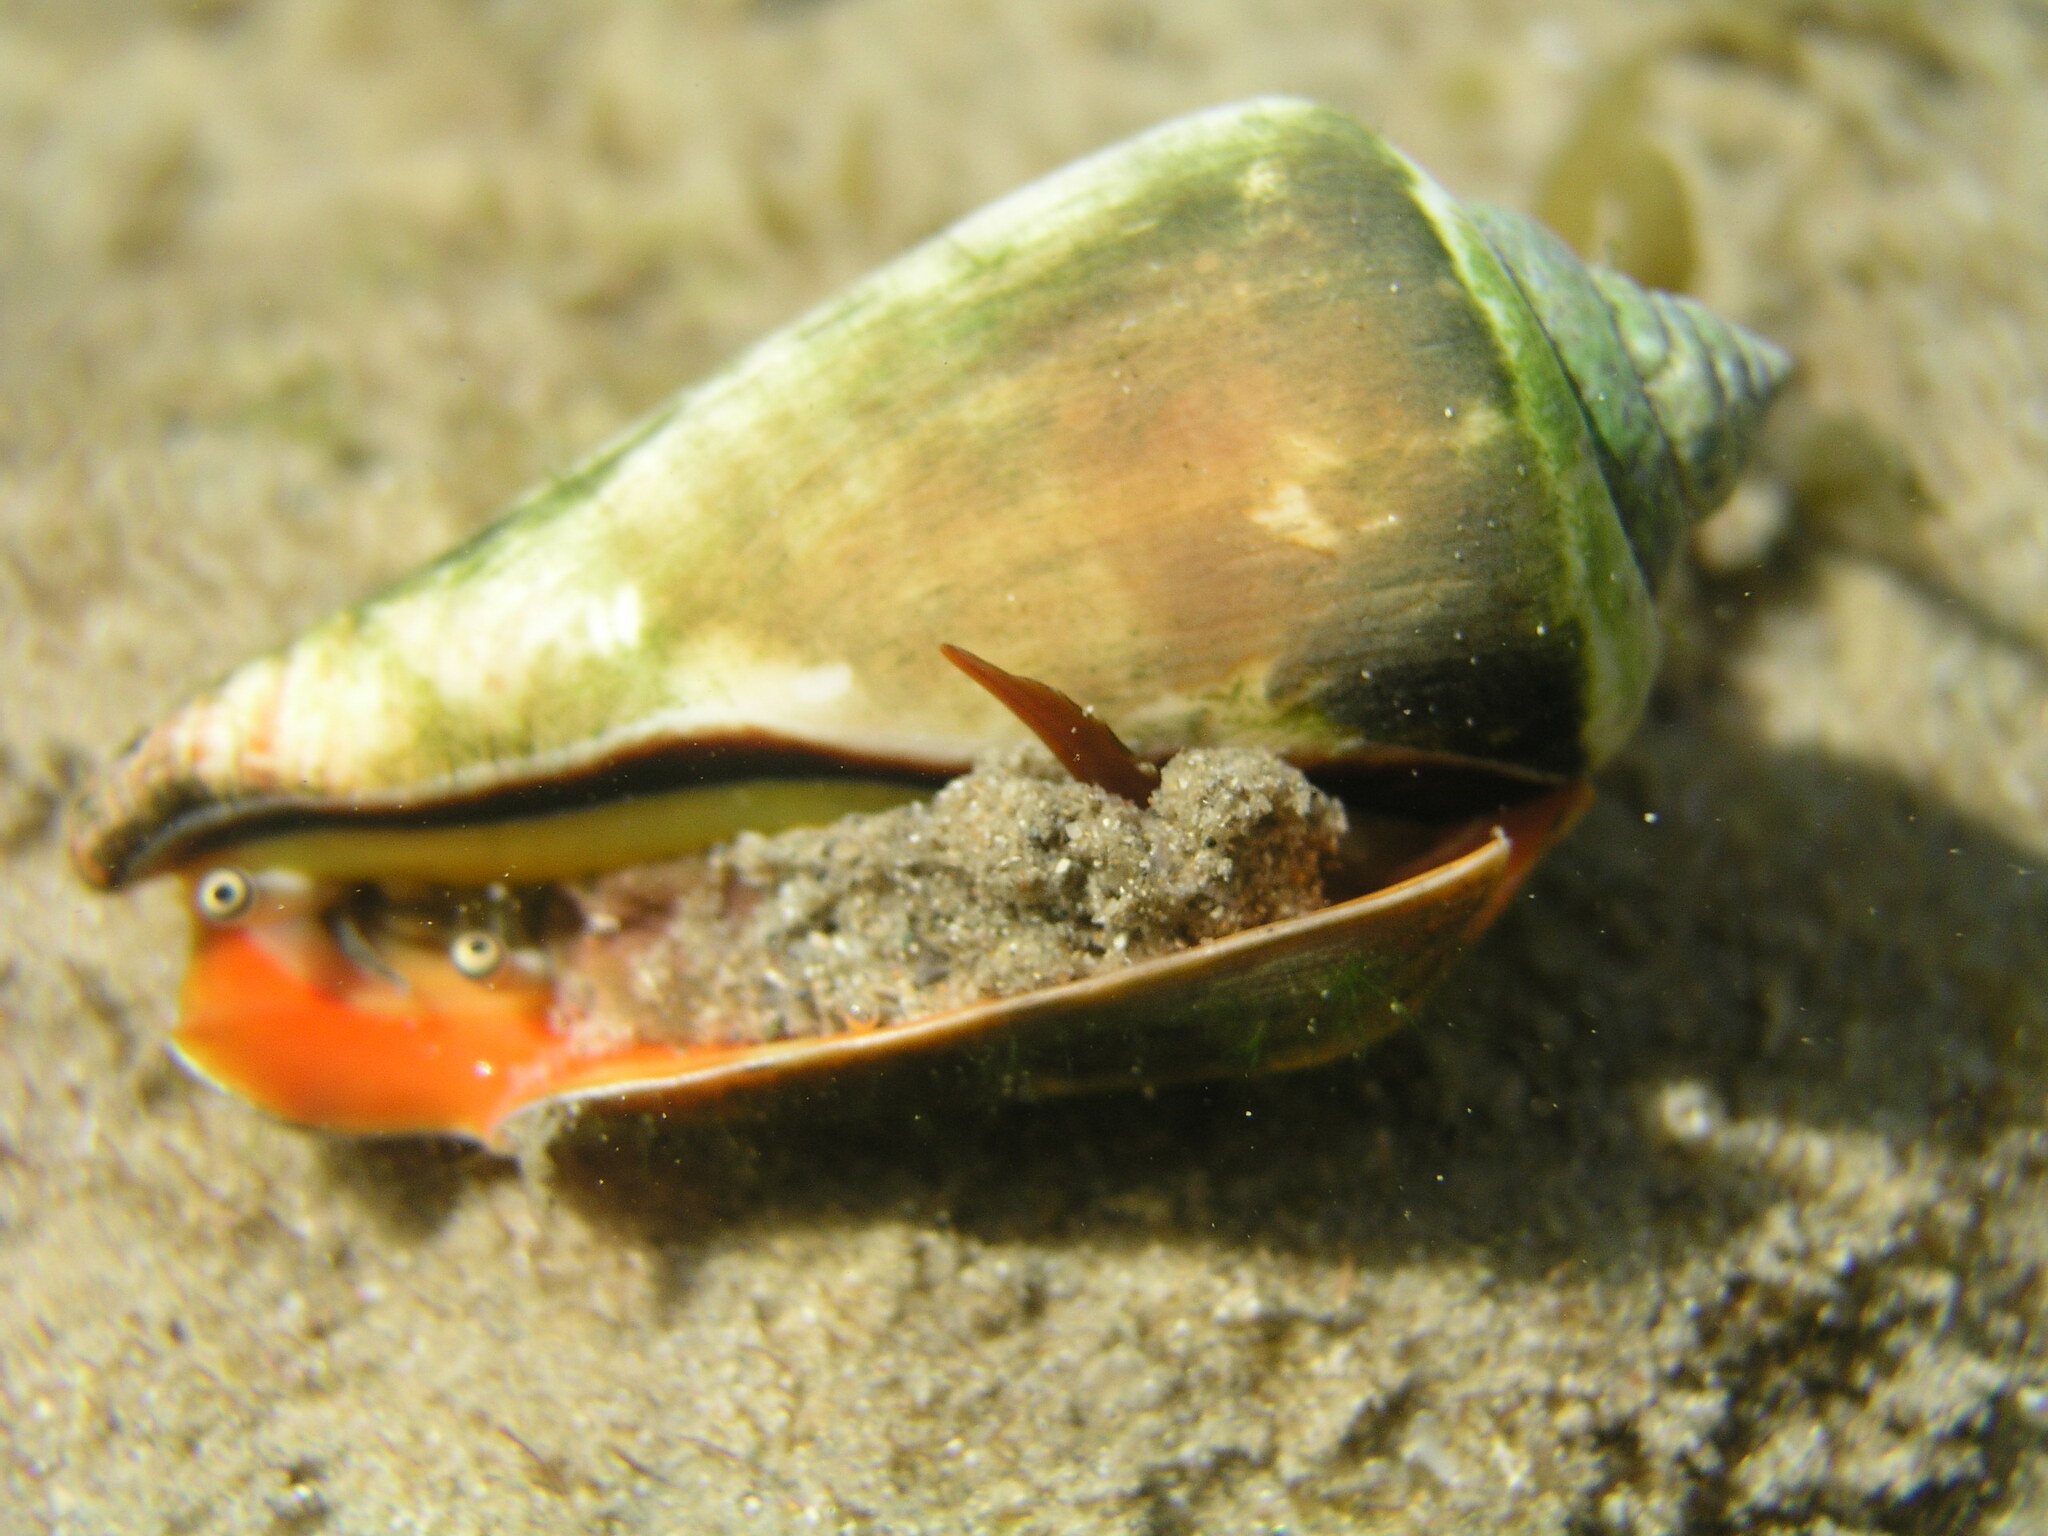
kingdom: Animalia
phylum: Mollusca
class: Gastropoda
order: Littorinimorpha
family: Strombidae
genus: Conomurex
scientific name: Conomurex luhuanus
